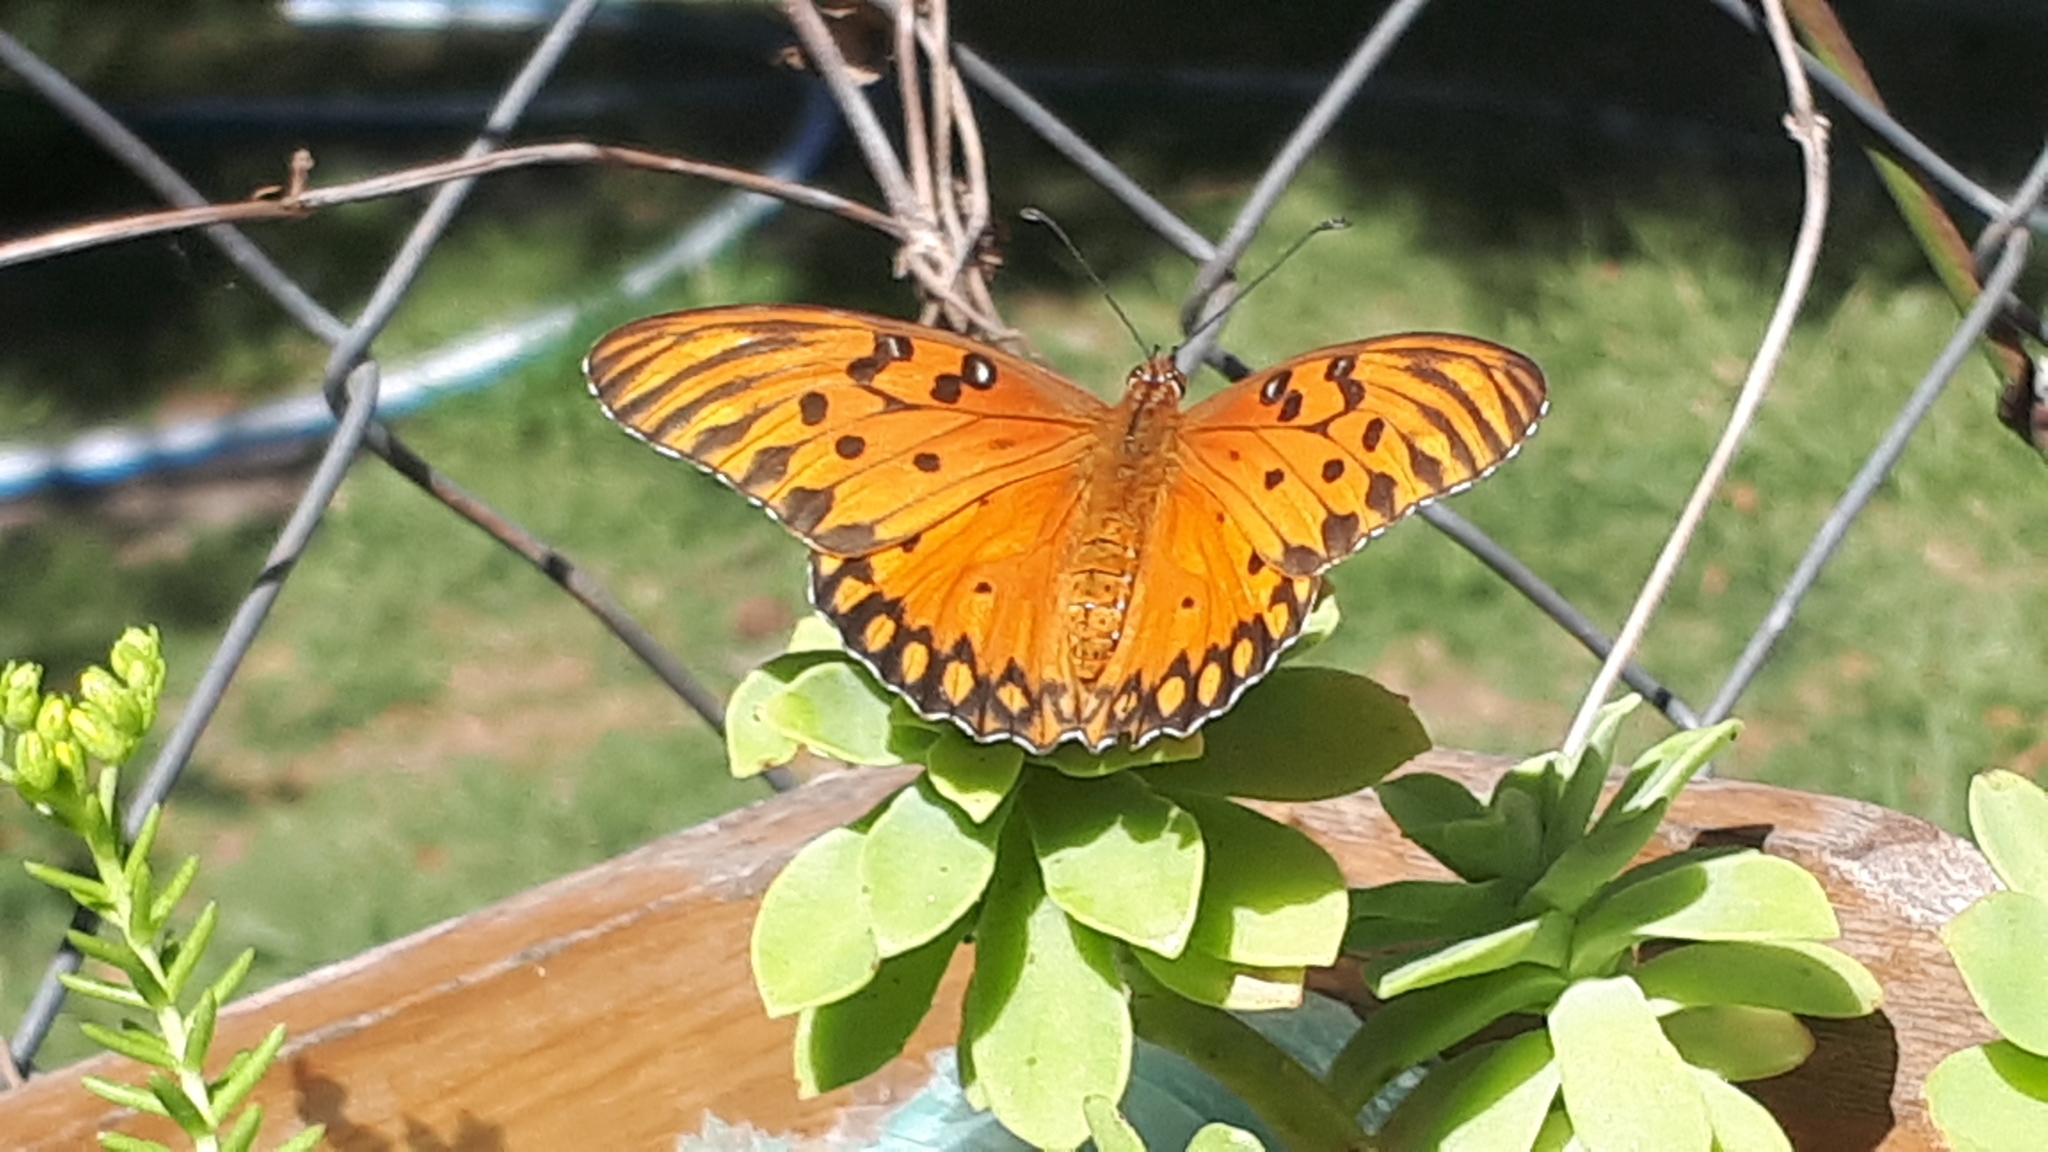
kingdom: Animalia
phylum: Arthropoda
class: Insecta
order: Lepidoptera
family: Nymphalidae
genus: Dione
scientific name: Dione vanillae
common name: Gulf fritillary
